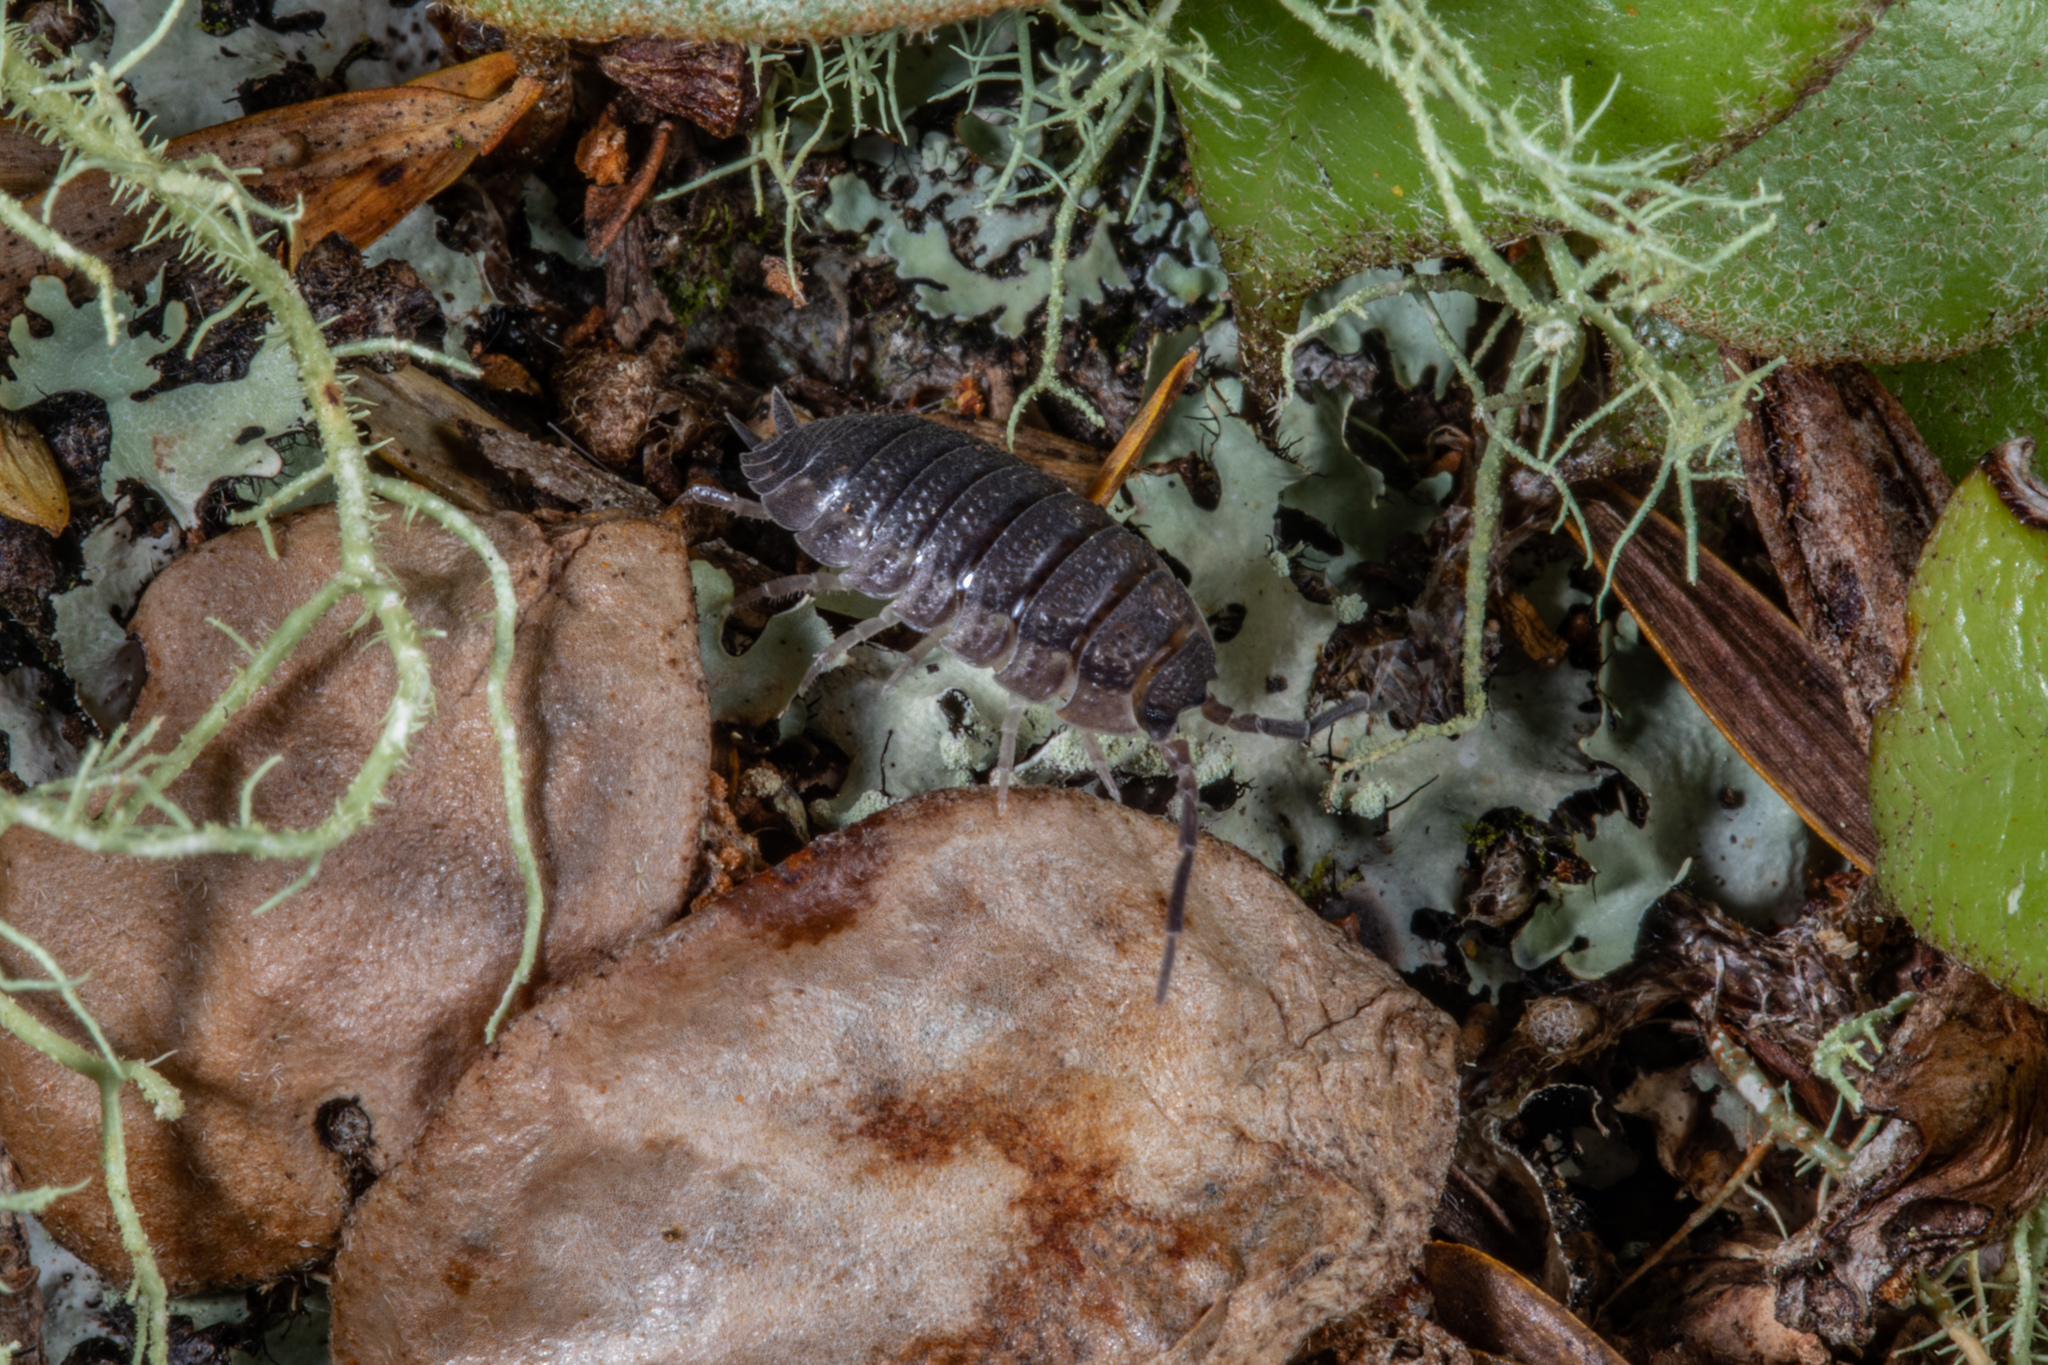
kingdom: Animalia
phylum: Arthropoda
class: Malacostraca
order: Isopoda
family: Porcellionidae
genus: Porcellio
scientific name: Porcellio scaber
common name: Common rough woodlouse
